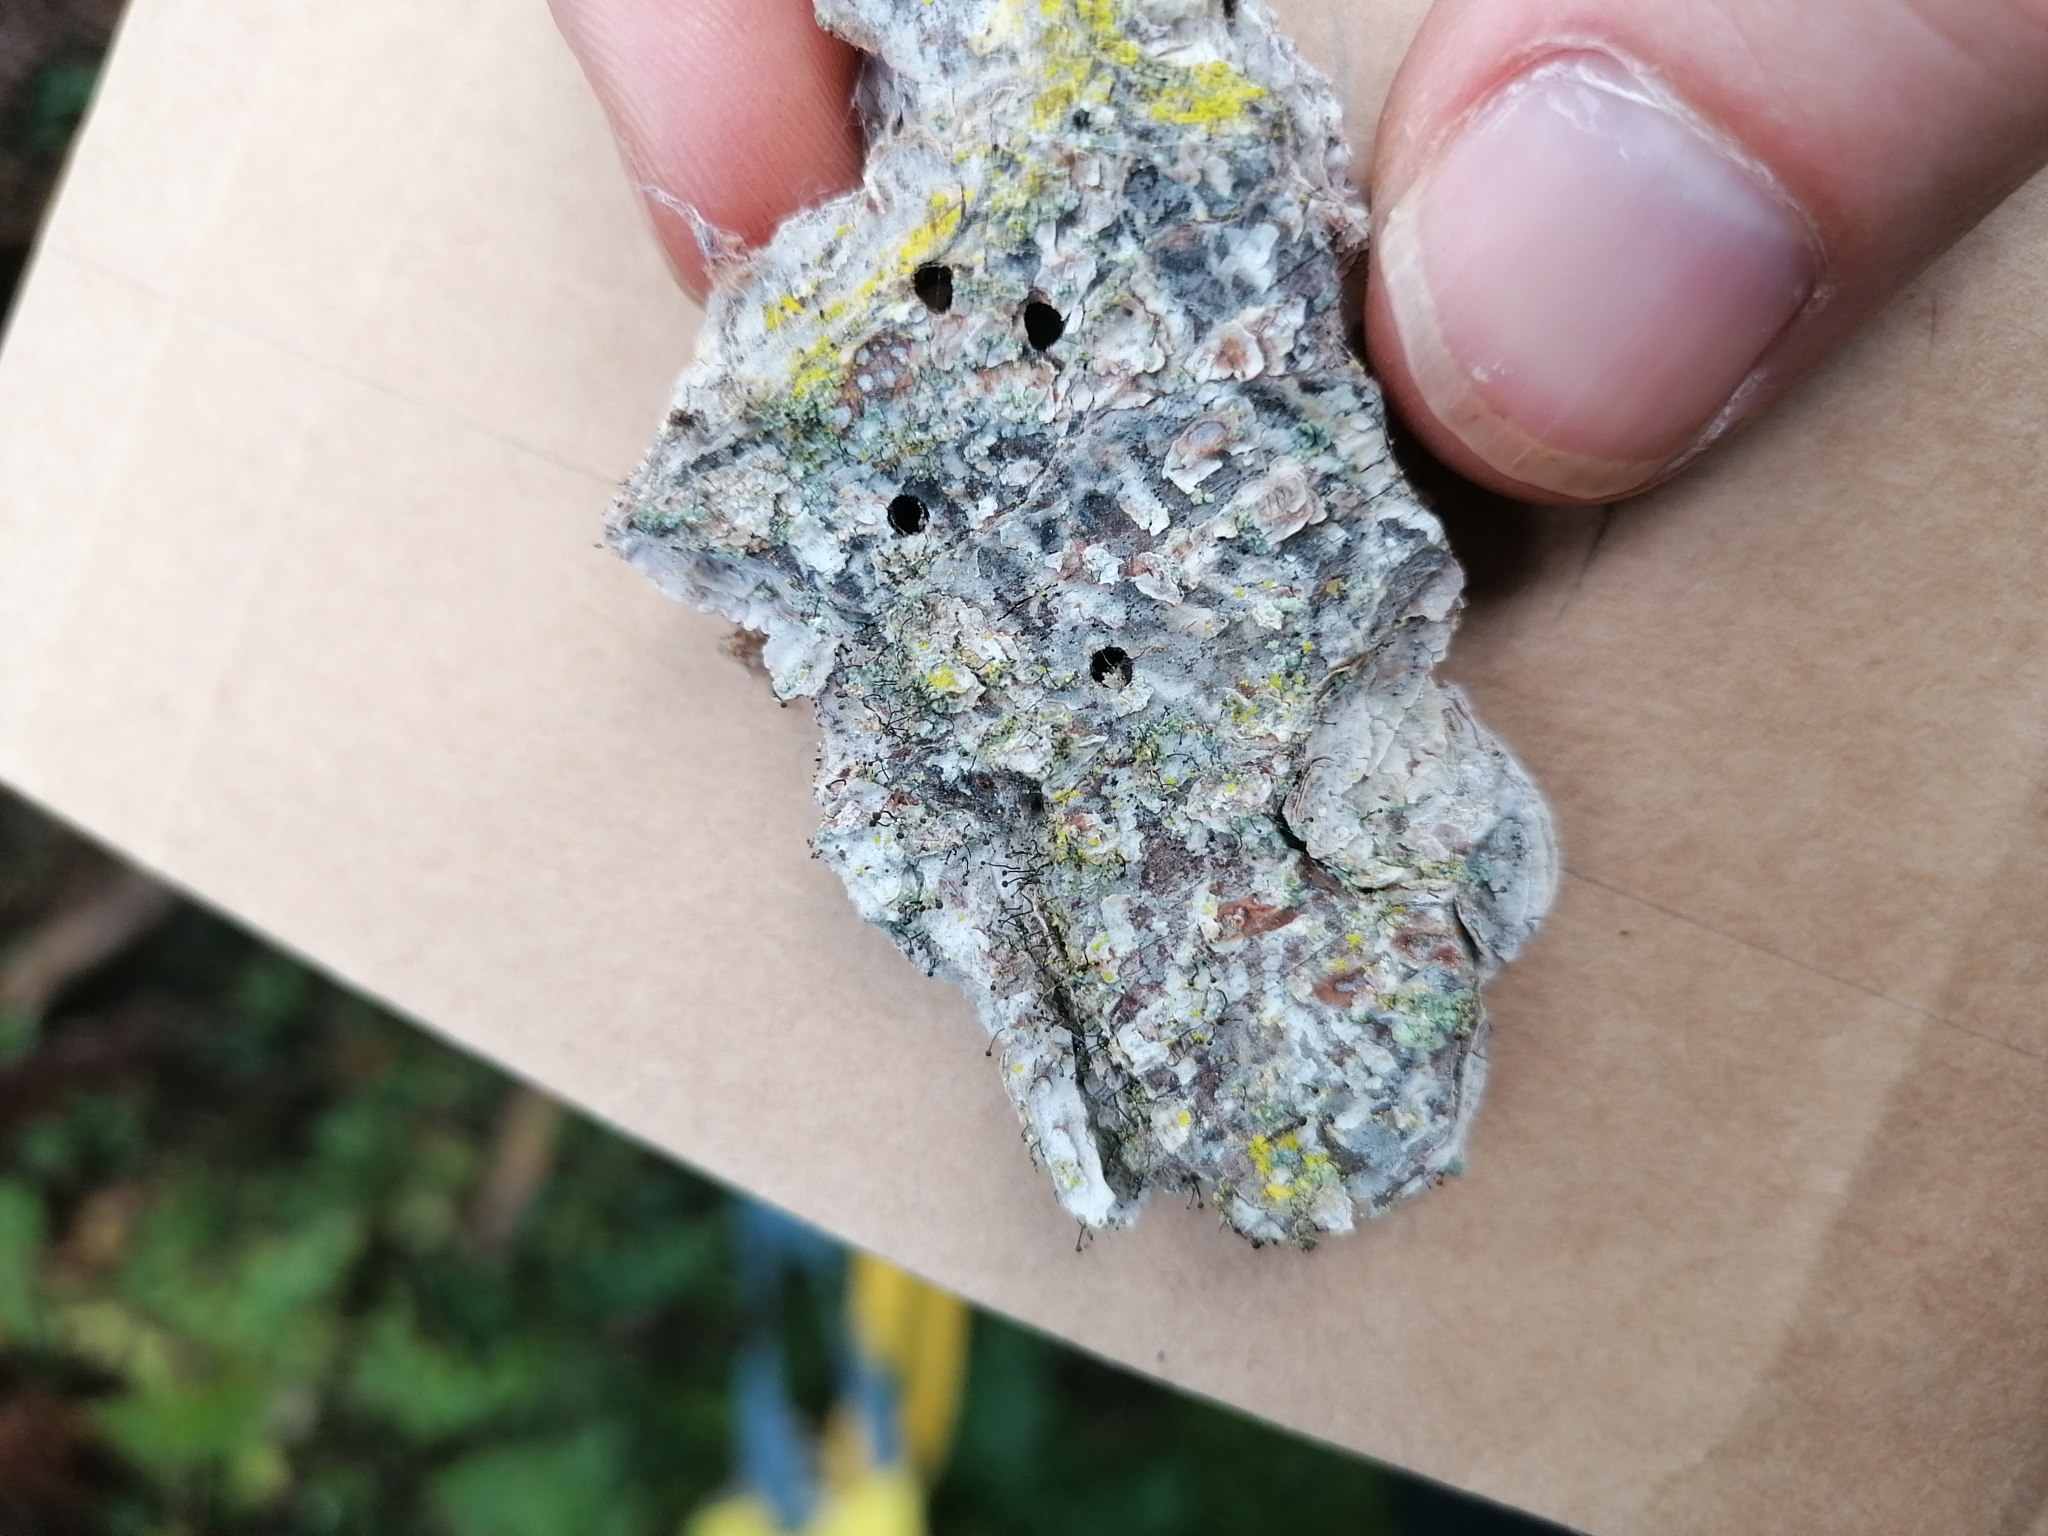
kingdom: Fungi
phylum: Ascomycota
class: Coniocybomycetes
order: Coniocybales
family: Coniocybaceae
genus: Chaenotheca
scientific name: Chaenotheca trichialis
